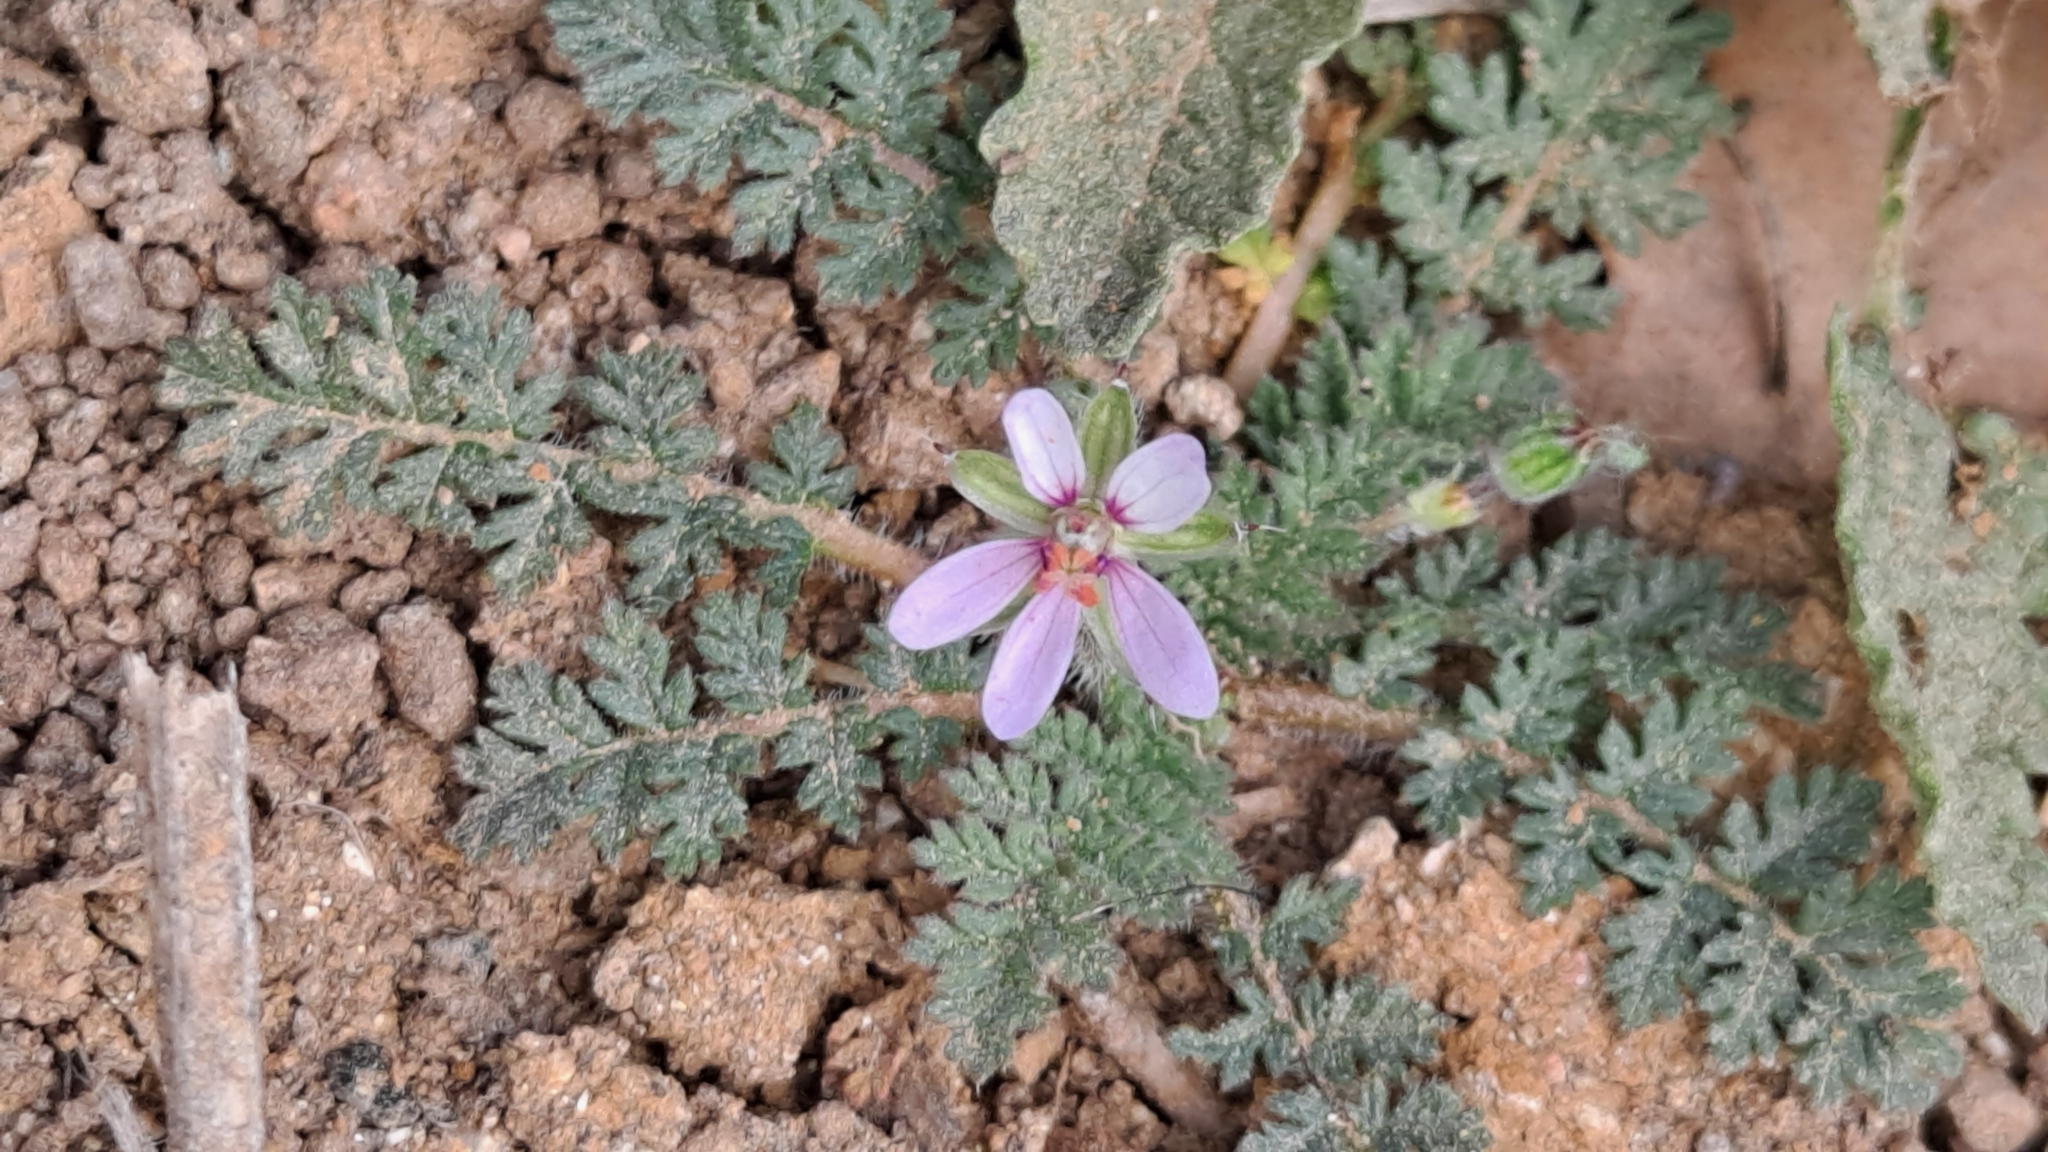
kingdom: Plantae
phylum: Tracheophyta
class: Magnoliopsida
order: Geraniales
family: Geraniaceae
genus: Erodium
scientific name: Erodium cicutarium
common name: Common stork's-bill
